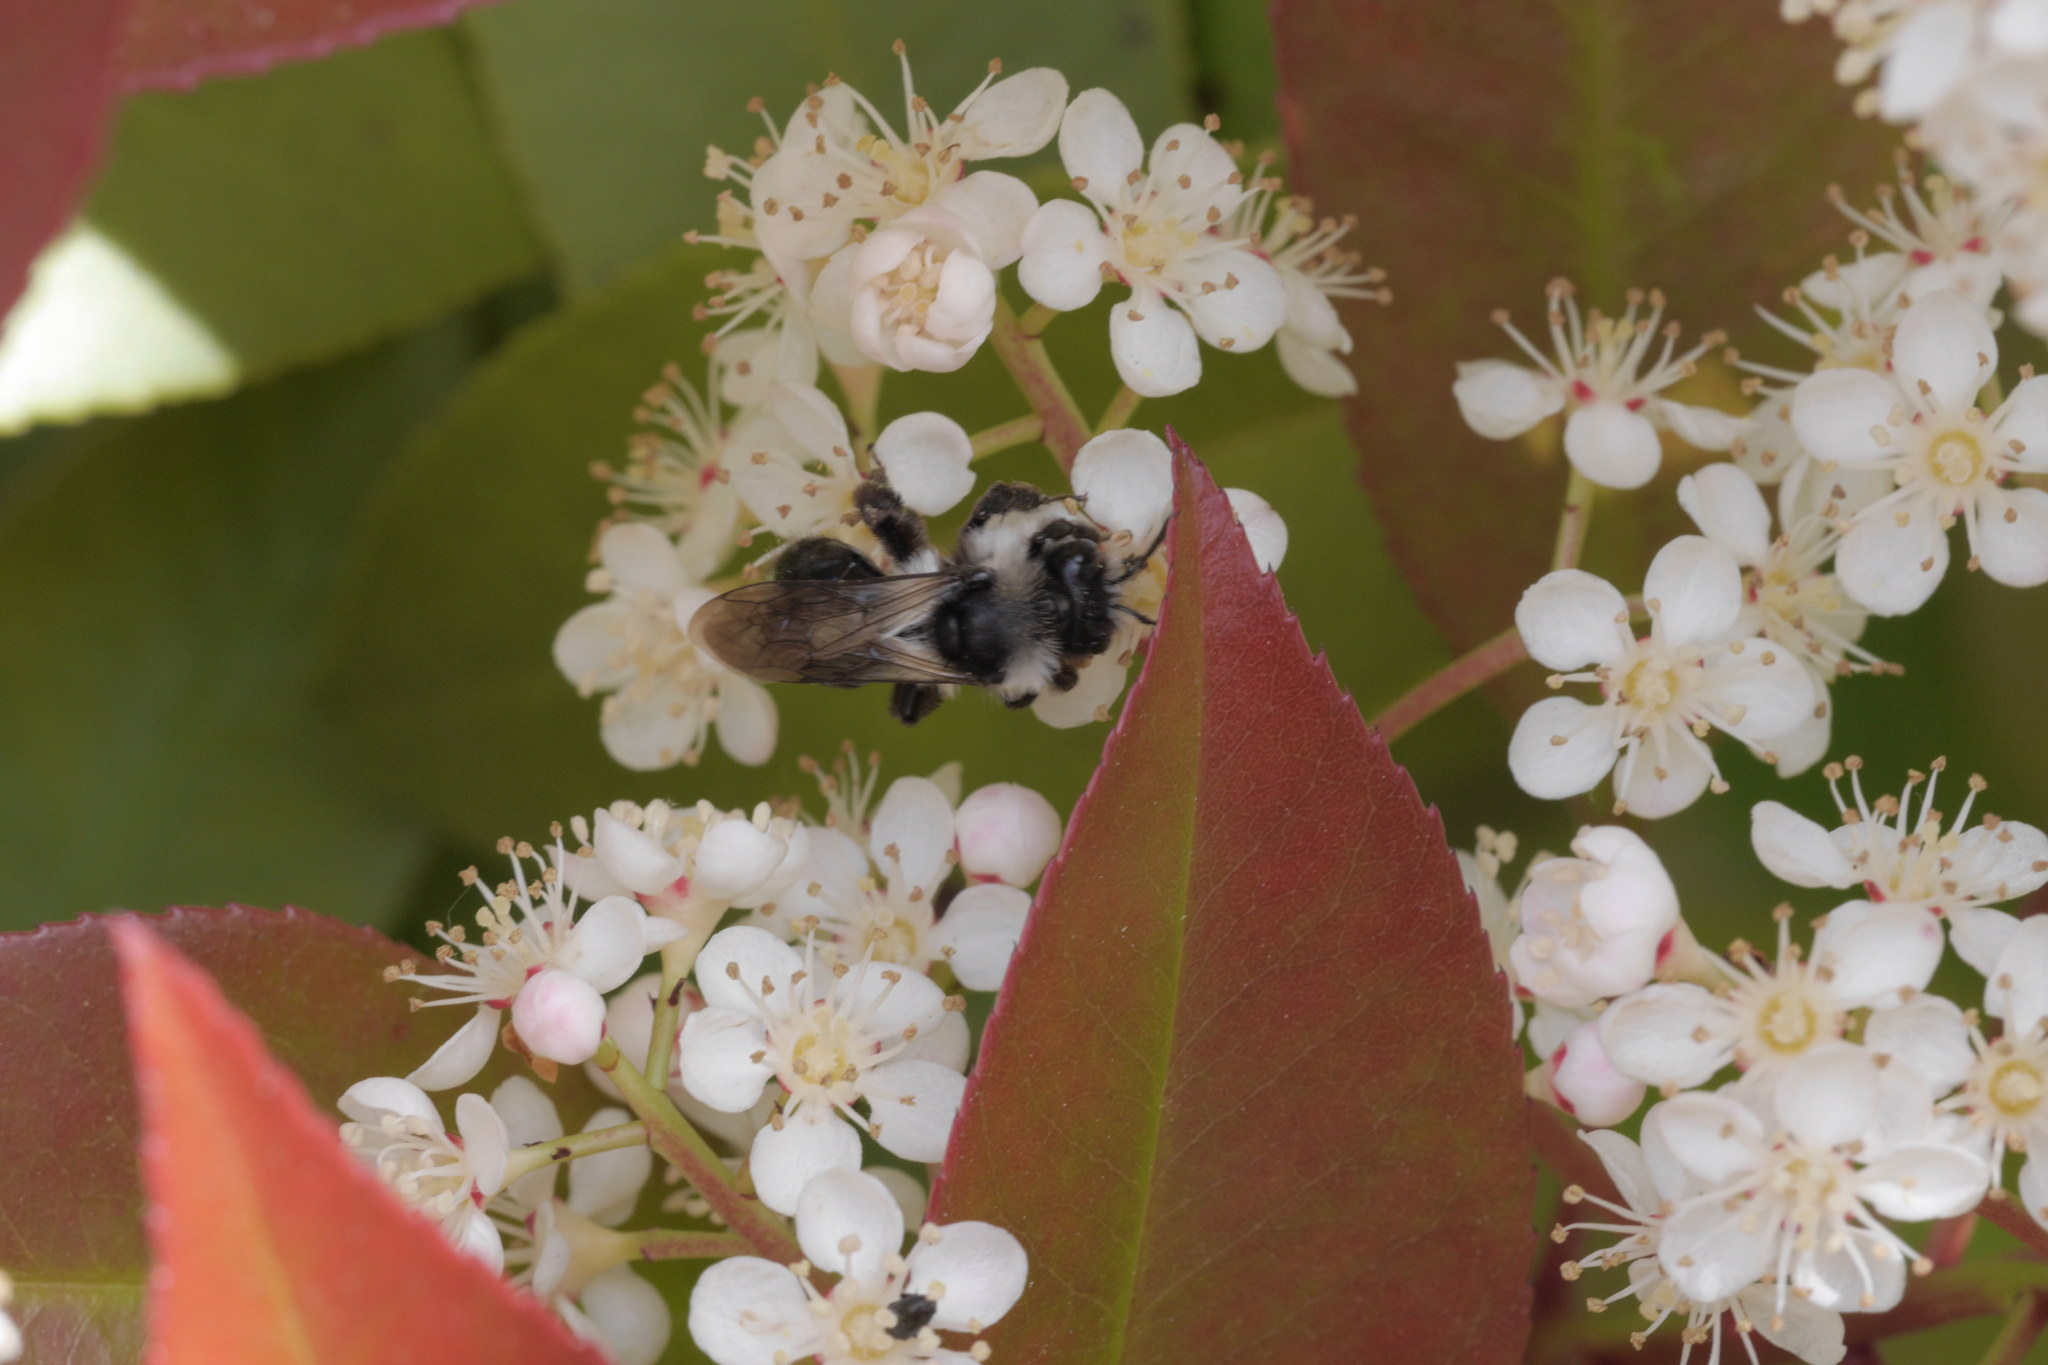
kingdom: Animalia
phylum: Arthropoda
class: Insecta
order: Hymenoptera
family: Andrenidae
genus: Andrena
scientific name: Andrena cineraria
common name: Ashy mining bee
